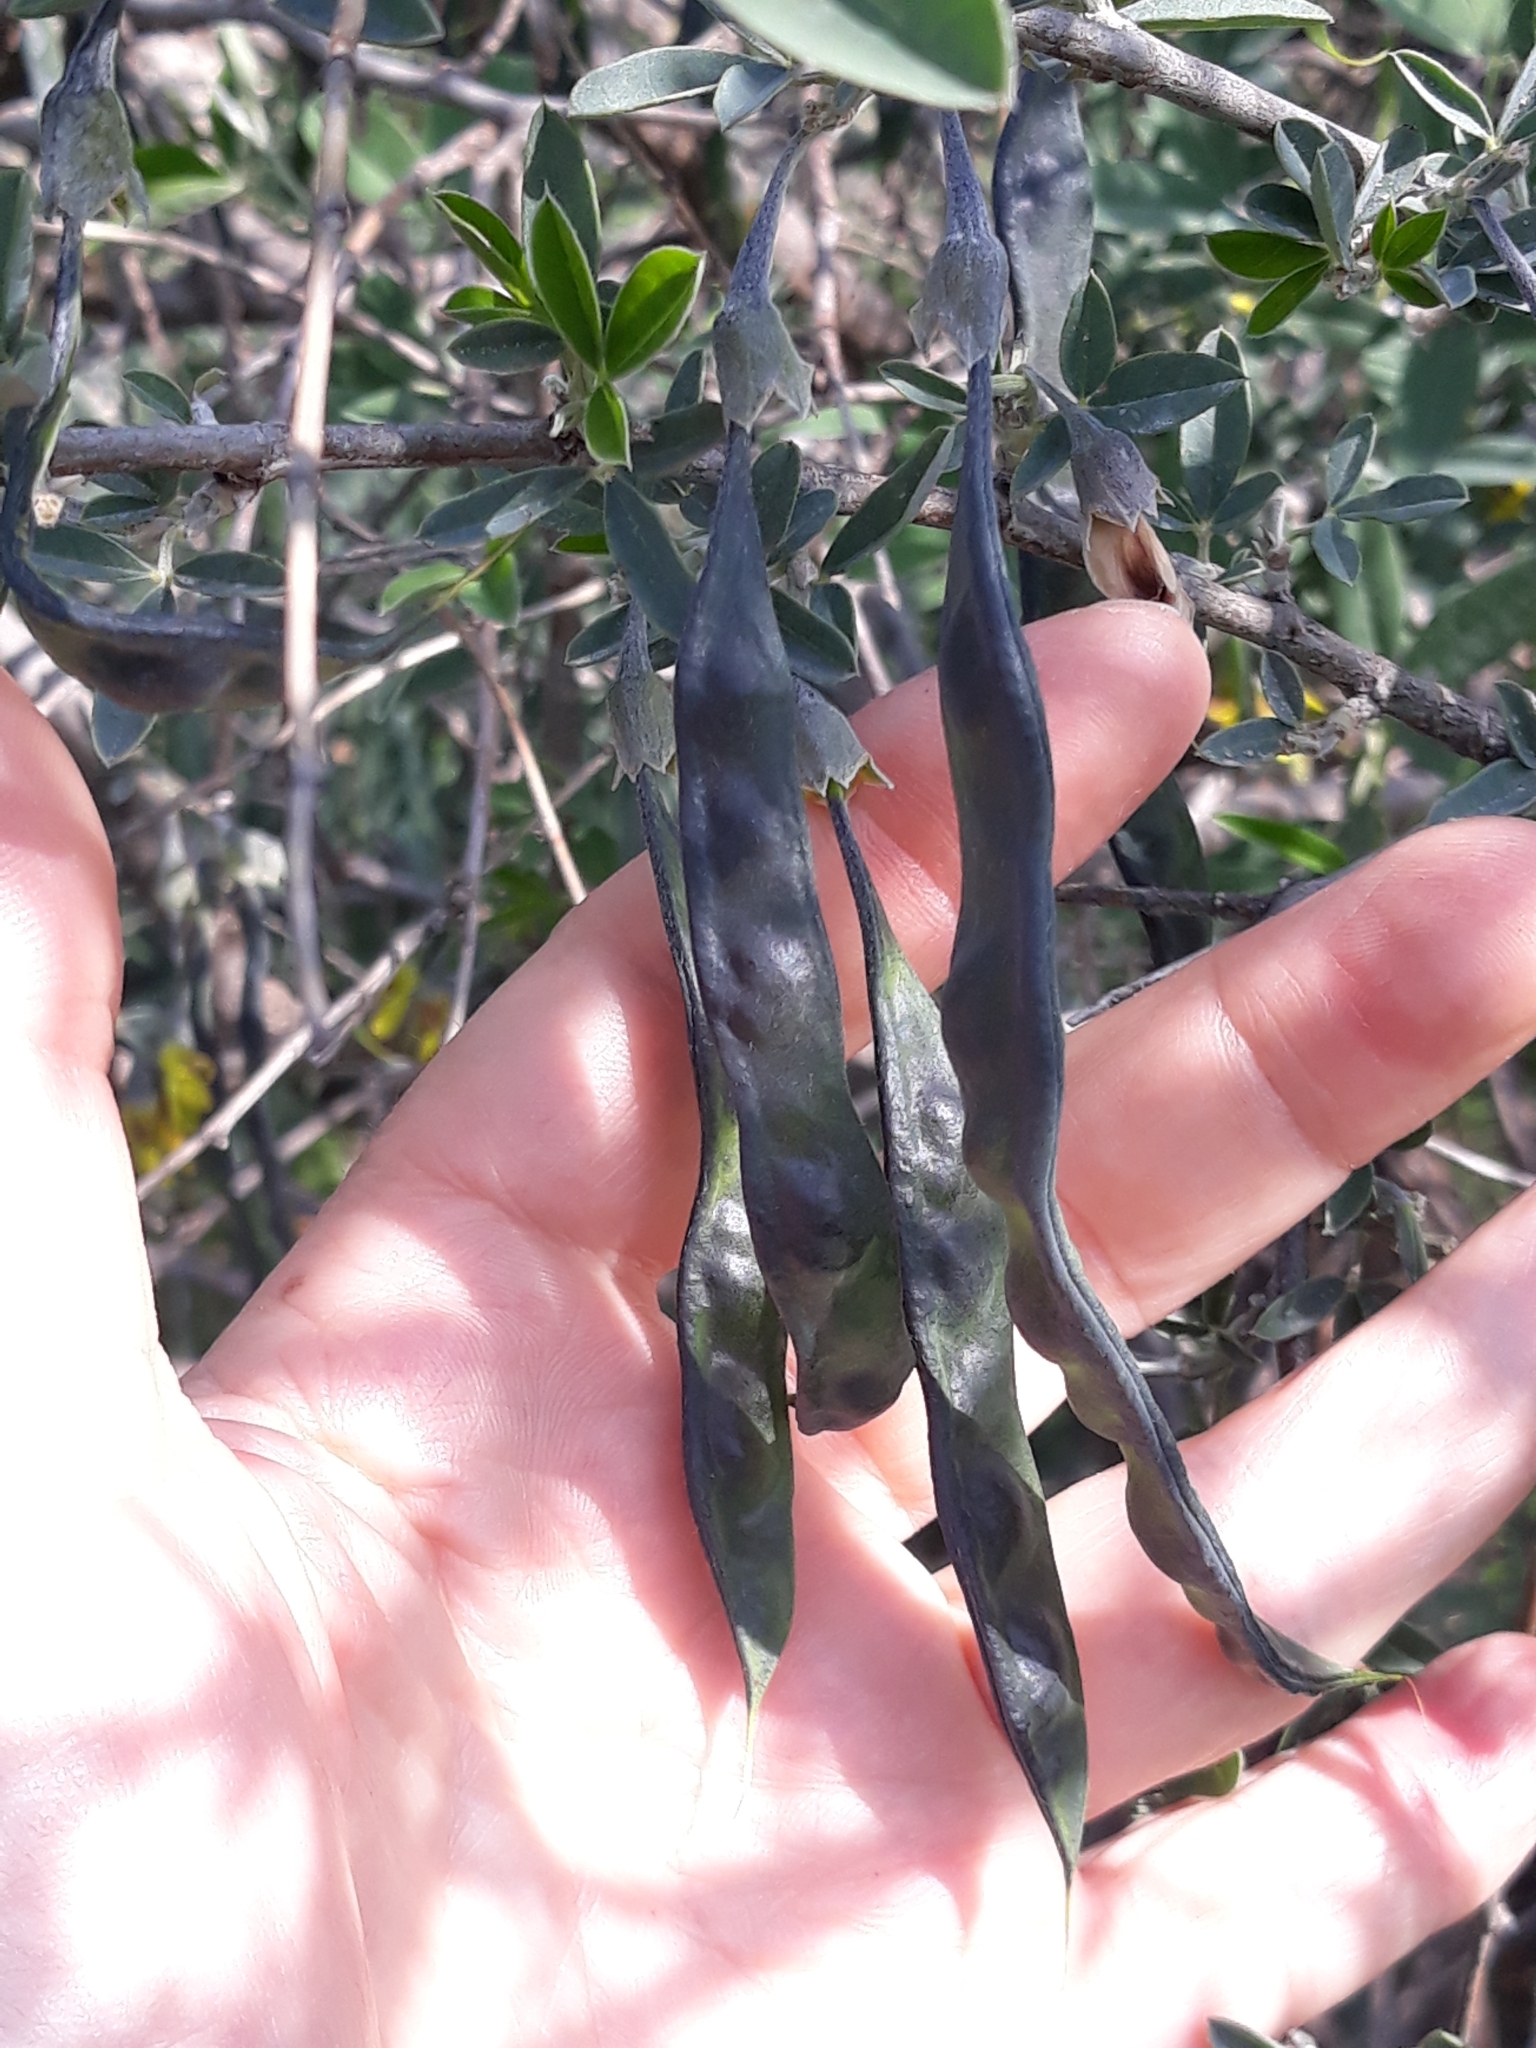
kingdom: Plantae
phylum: Tracheophyta
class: Magnoliopsida
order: Fabales
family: Fabaceae
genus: Anagyris
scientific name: Anagyris foetida
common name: Stinking bean trefoil
